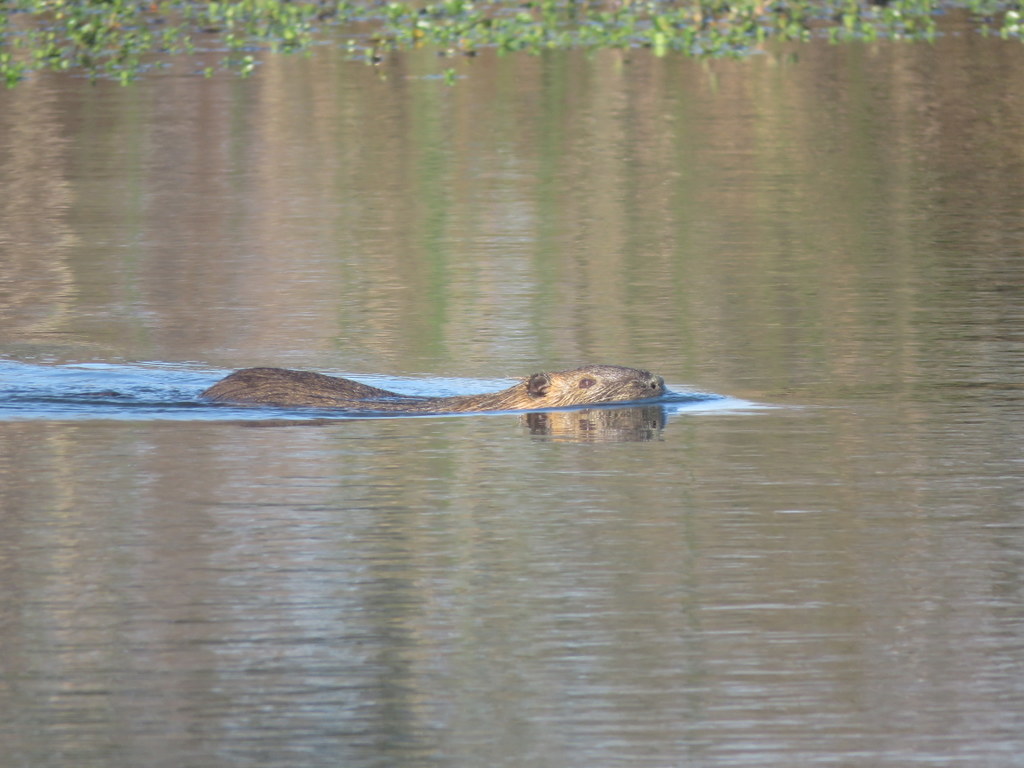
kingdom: Animalia
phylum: Chordata
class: Mammalia
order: Rodentia
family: Myocastoridae
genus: Myocastor
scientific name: Myocastor coypus
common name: Coypu
